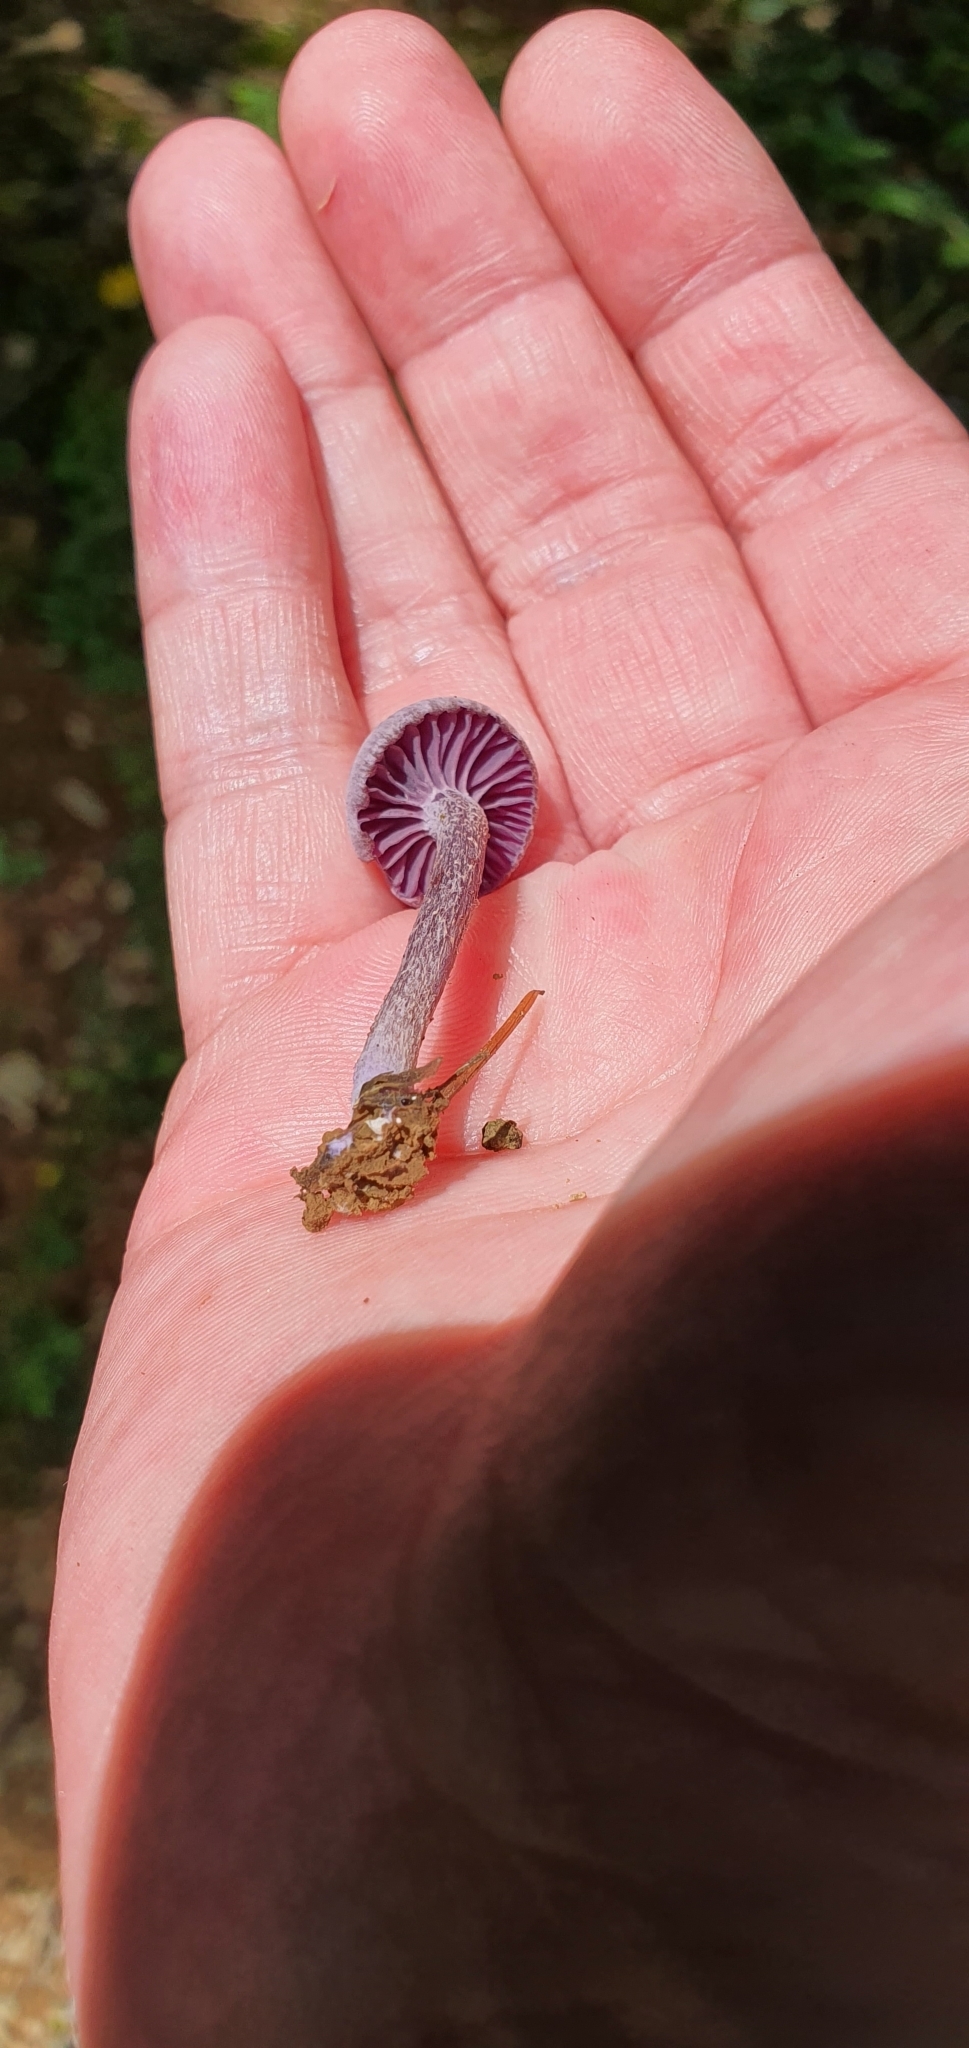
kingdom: Fungi
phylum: Basidiomycota
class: Agaricomycetes
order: Agaricales
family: Hydnangiaceae
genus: Laccaria
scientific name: Laccaria amethystina
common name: Amethyst deceiver
